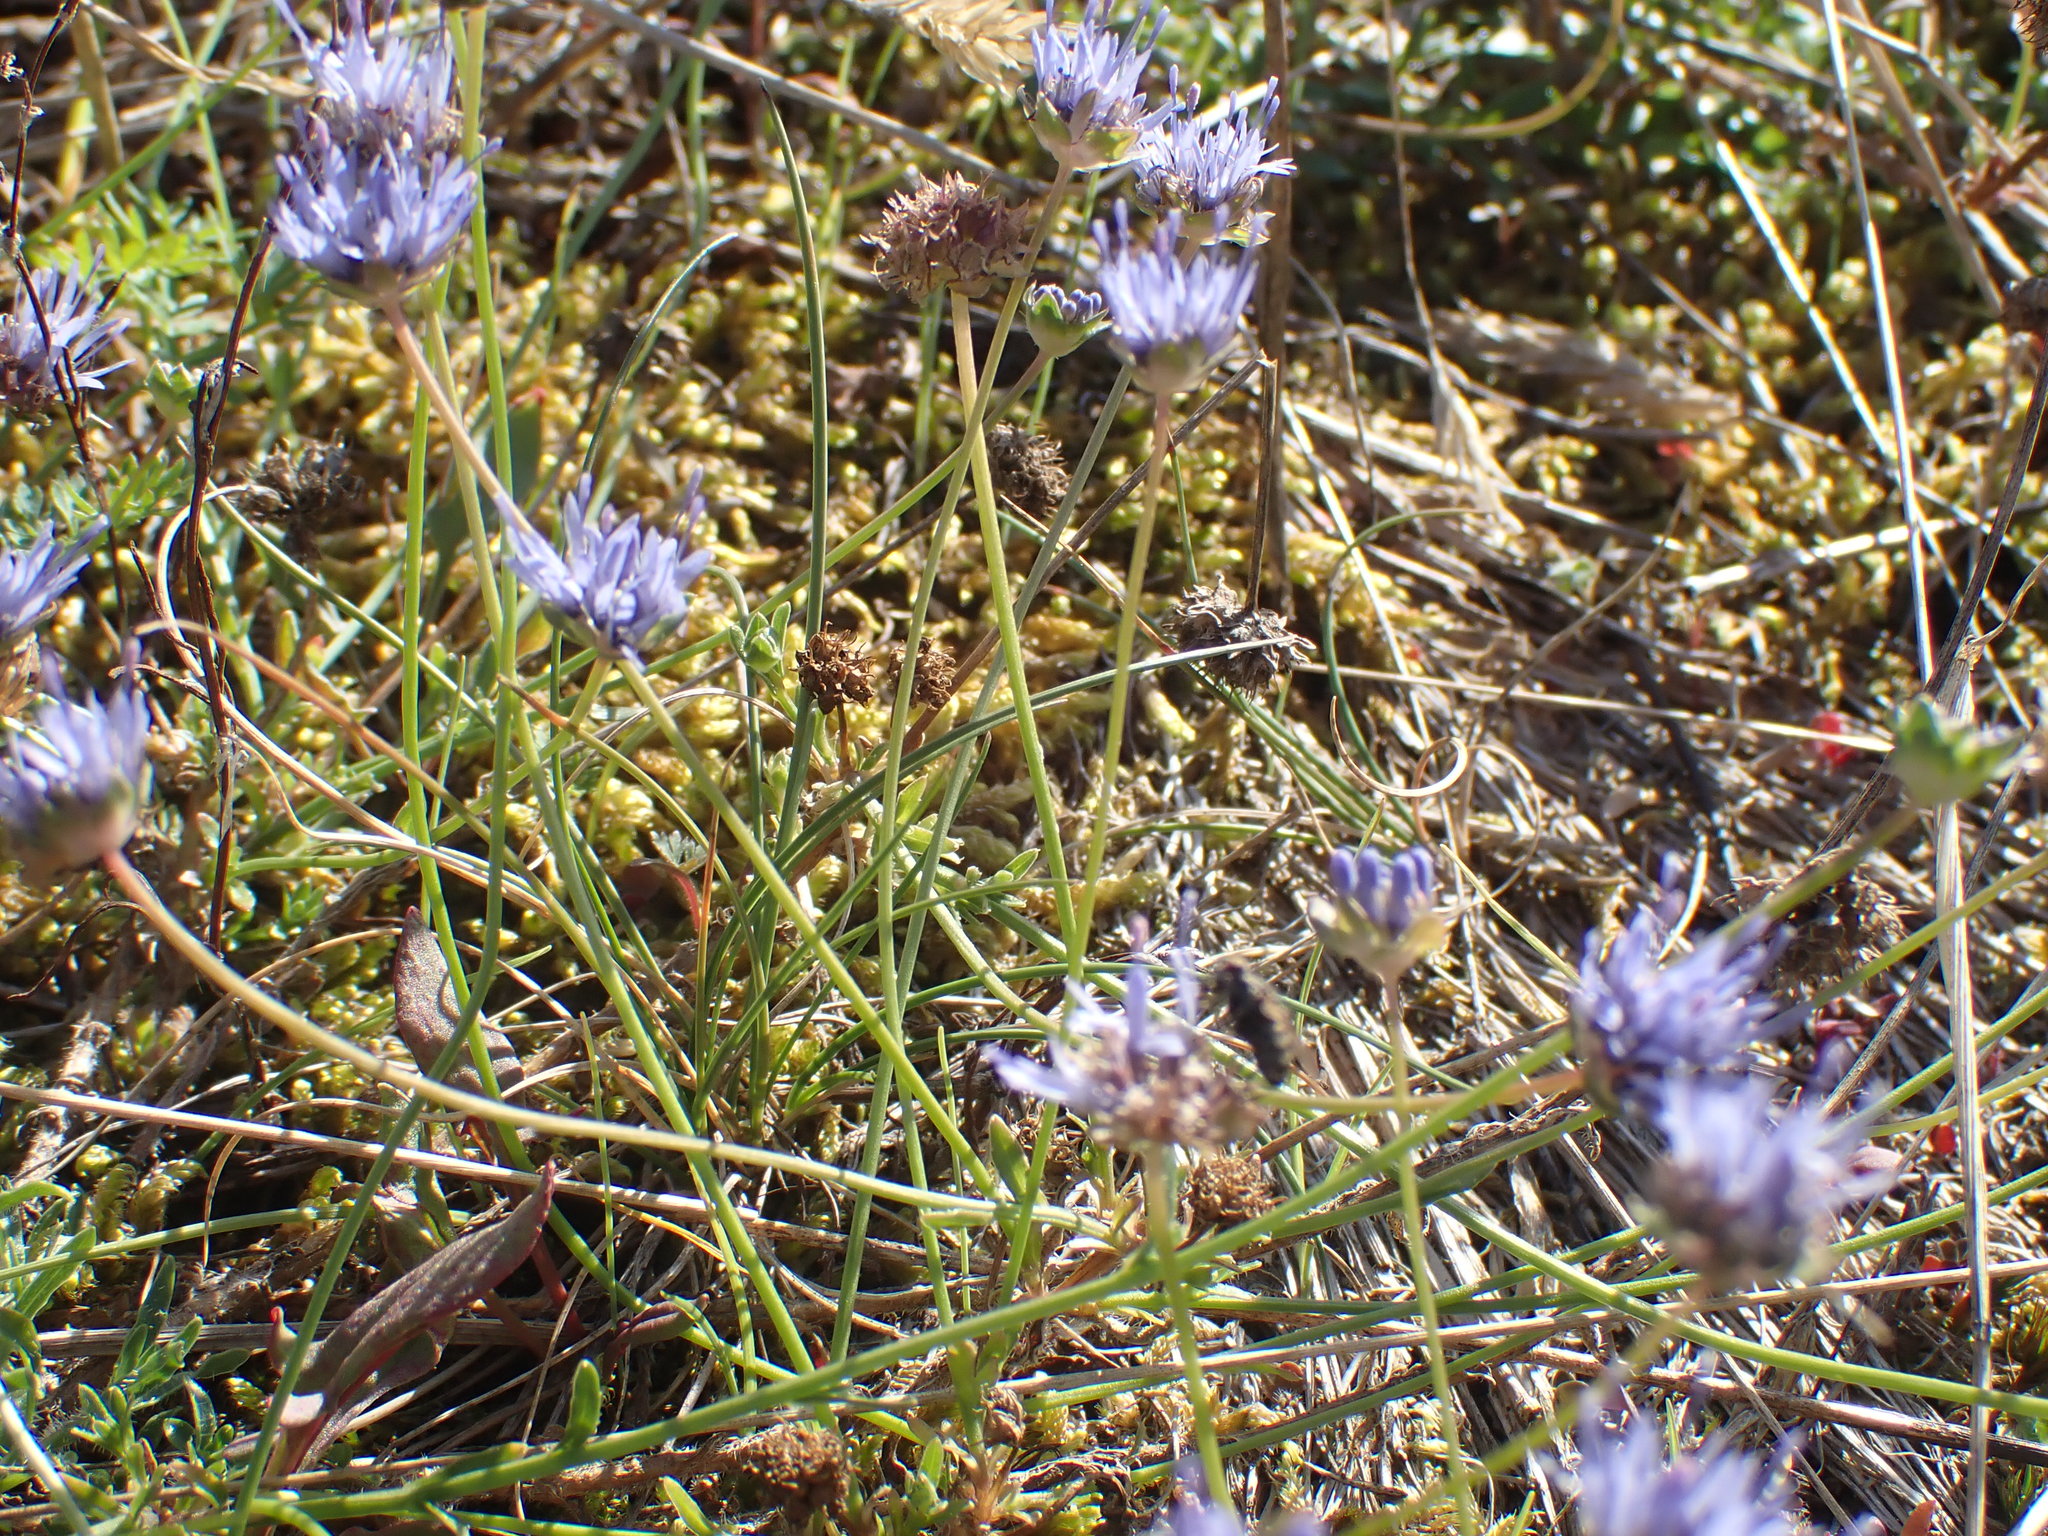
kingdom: Plantae
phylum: Tracheophyta
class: Magnoliopsida
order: Asterales
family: Campanulaceae
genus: Jasione
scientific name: Jasione montana
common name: Sheep's-bit
